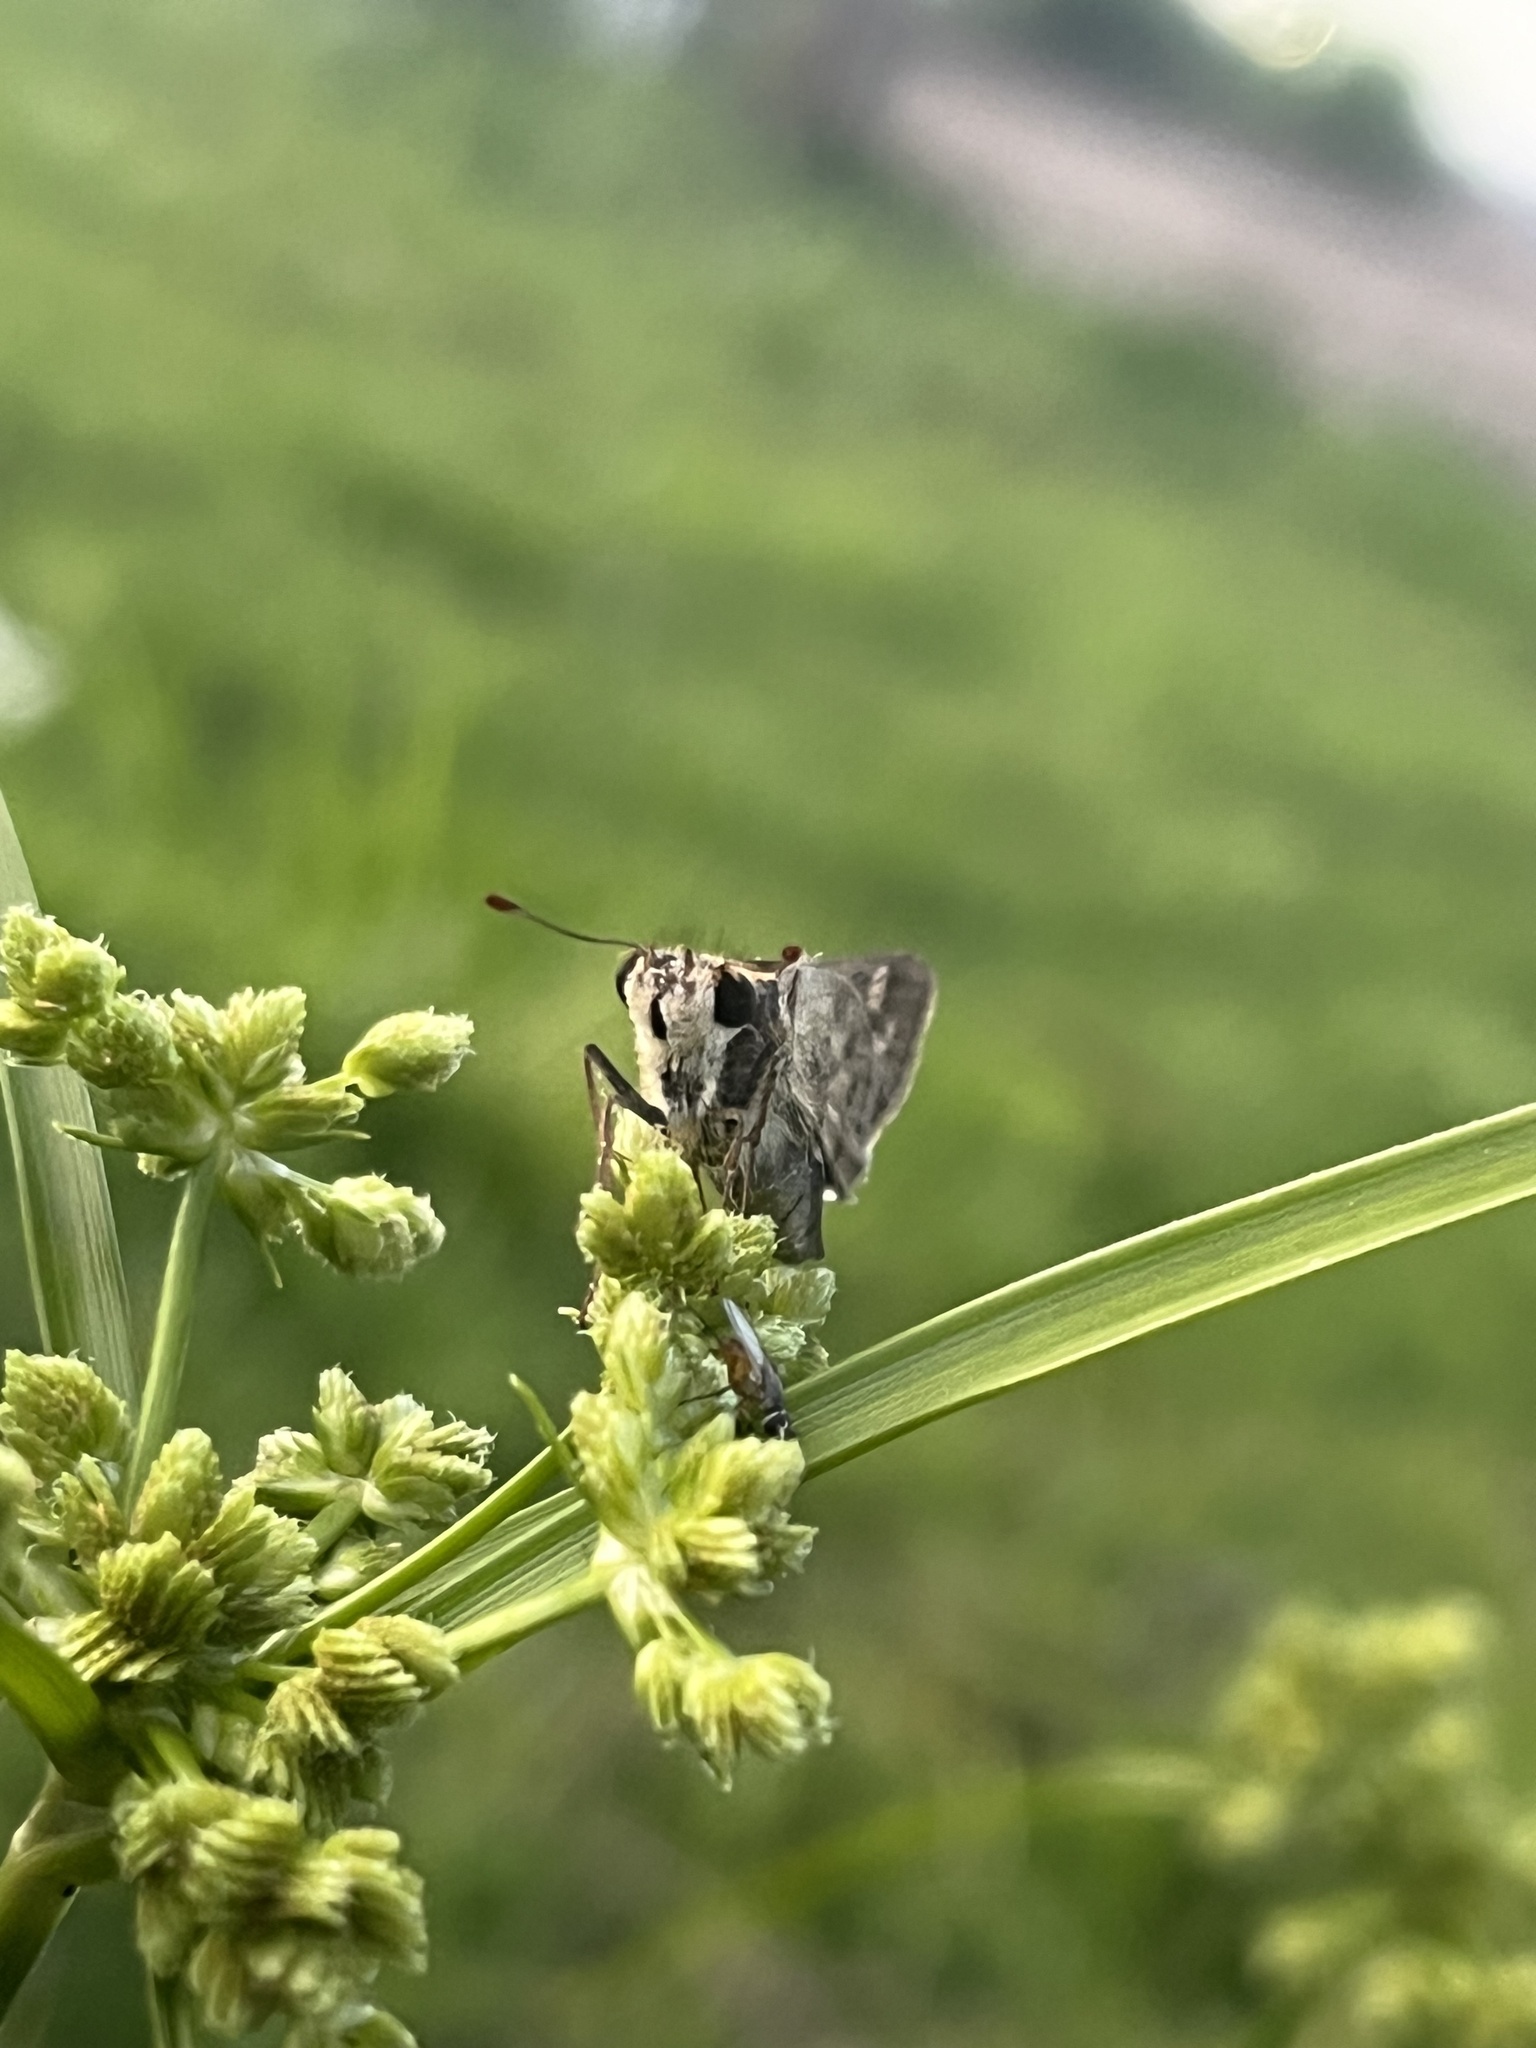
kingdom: Animalia
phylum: Arthropoda
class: Insecta
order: Lepidoptera
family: Hesperiidae
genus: Atalopedes
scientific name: Atalopedes
